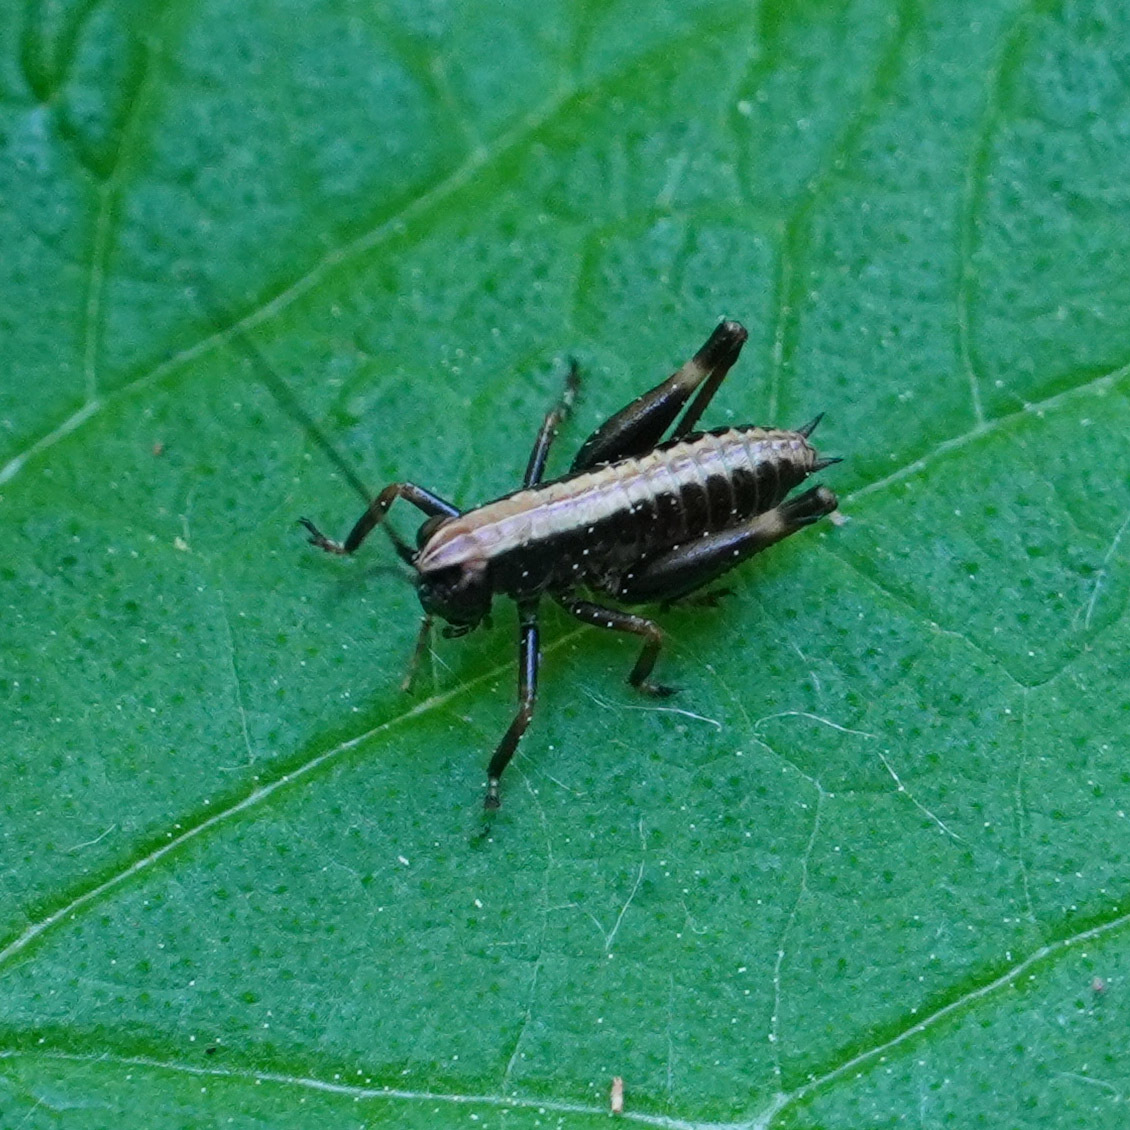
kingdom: Animalia
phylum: Arthropoda
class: Insecta
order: Orthoptera
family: Tettigoniidae
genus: Pholidoptera
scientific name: Pholidoptera griseoaptera
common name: Dark bush-cricket
